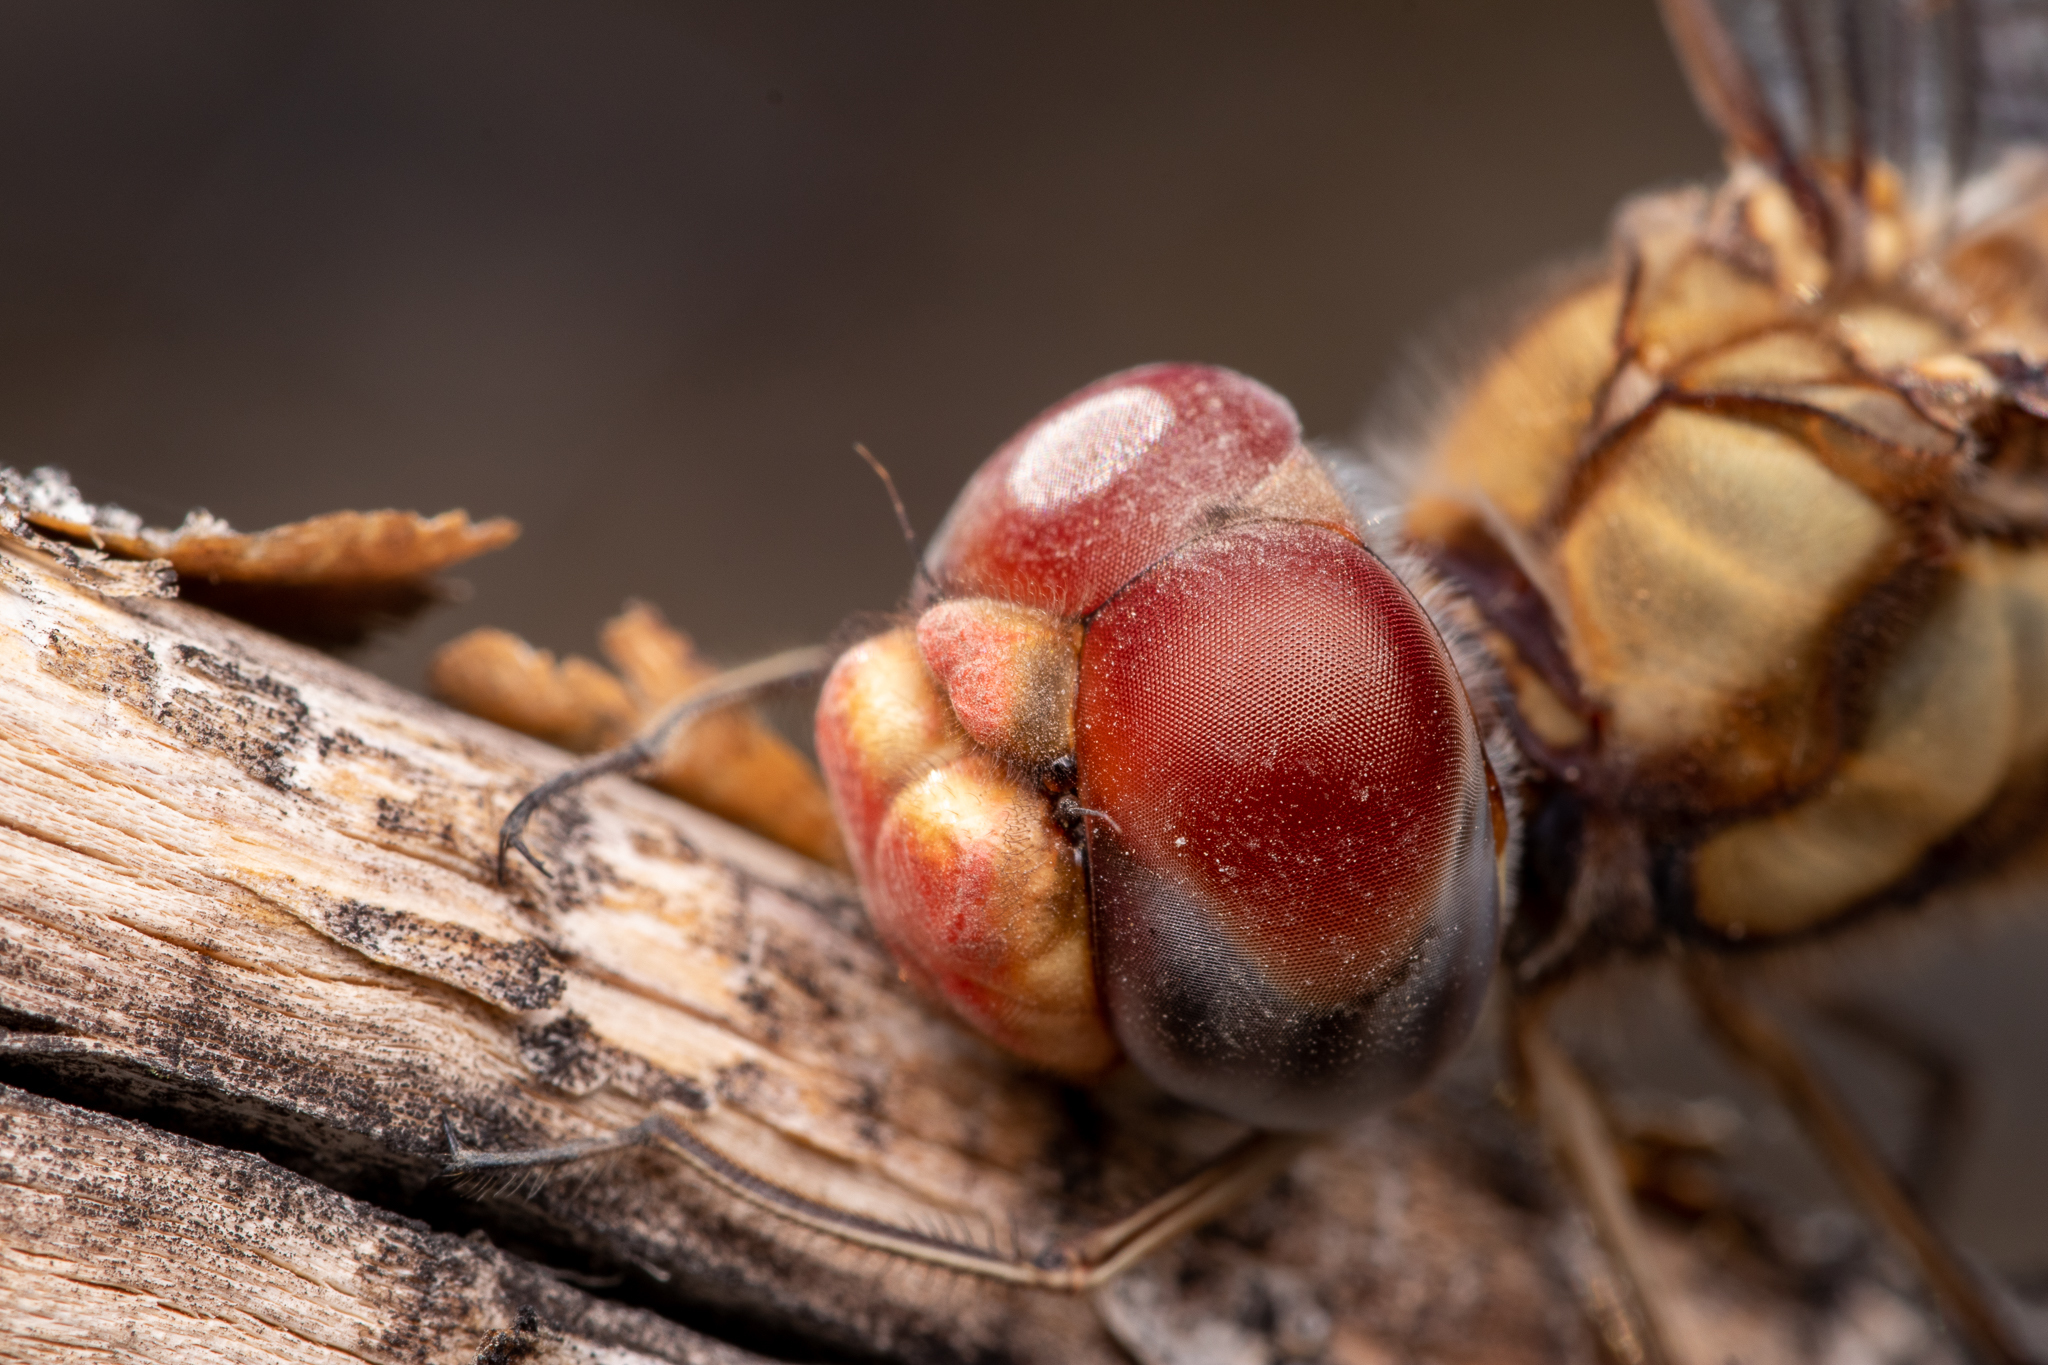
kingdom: Animalia
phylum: Arthropoda
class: Insecta
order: Odonata
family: Libellulidae
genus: Pantala
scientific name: Pantala hymenaea
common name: Spot-winged glider
